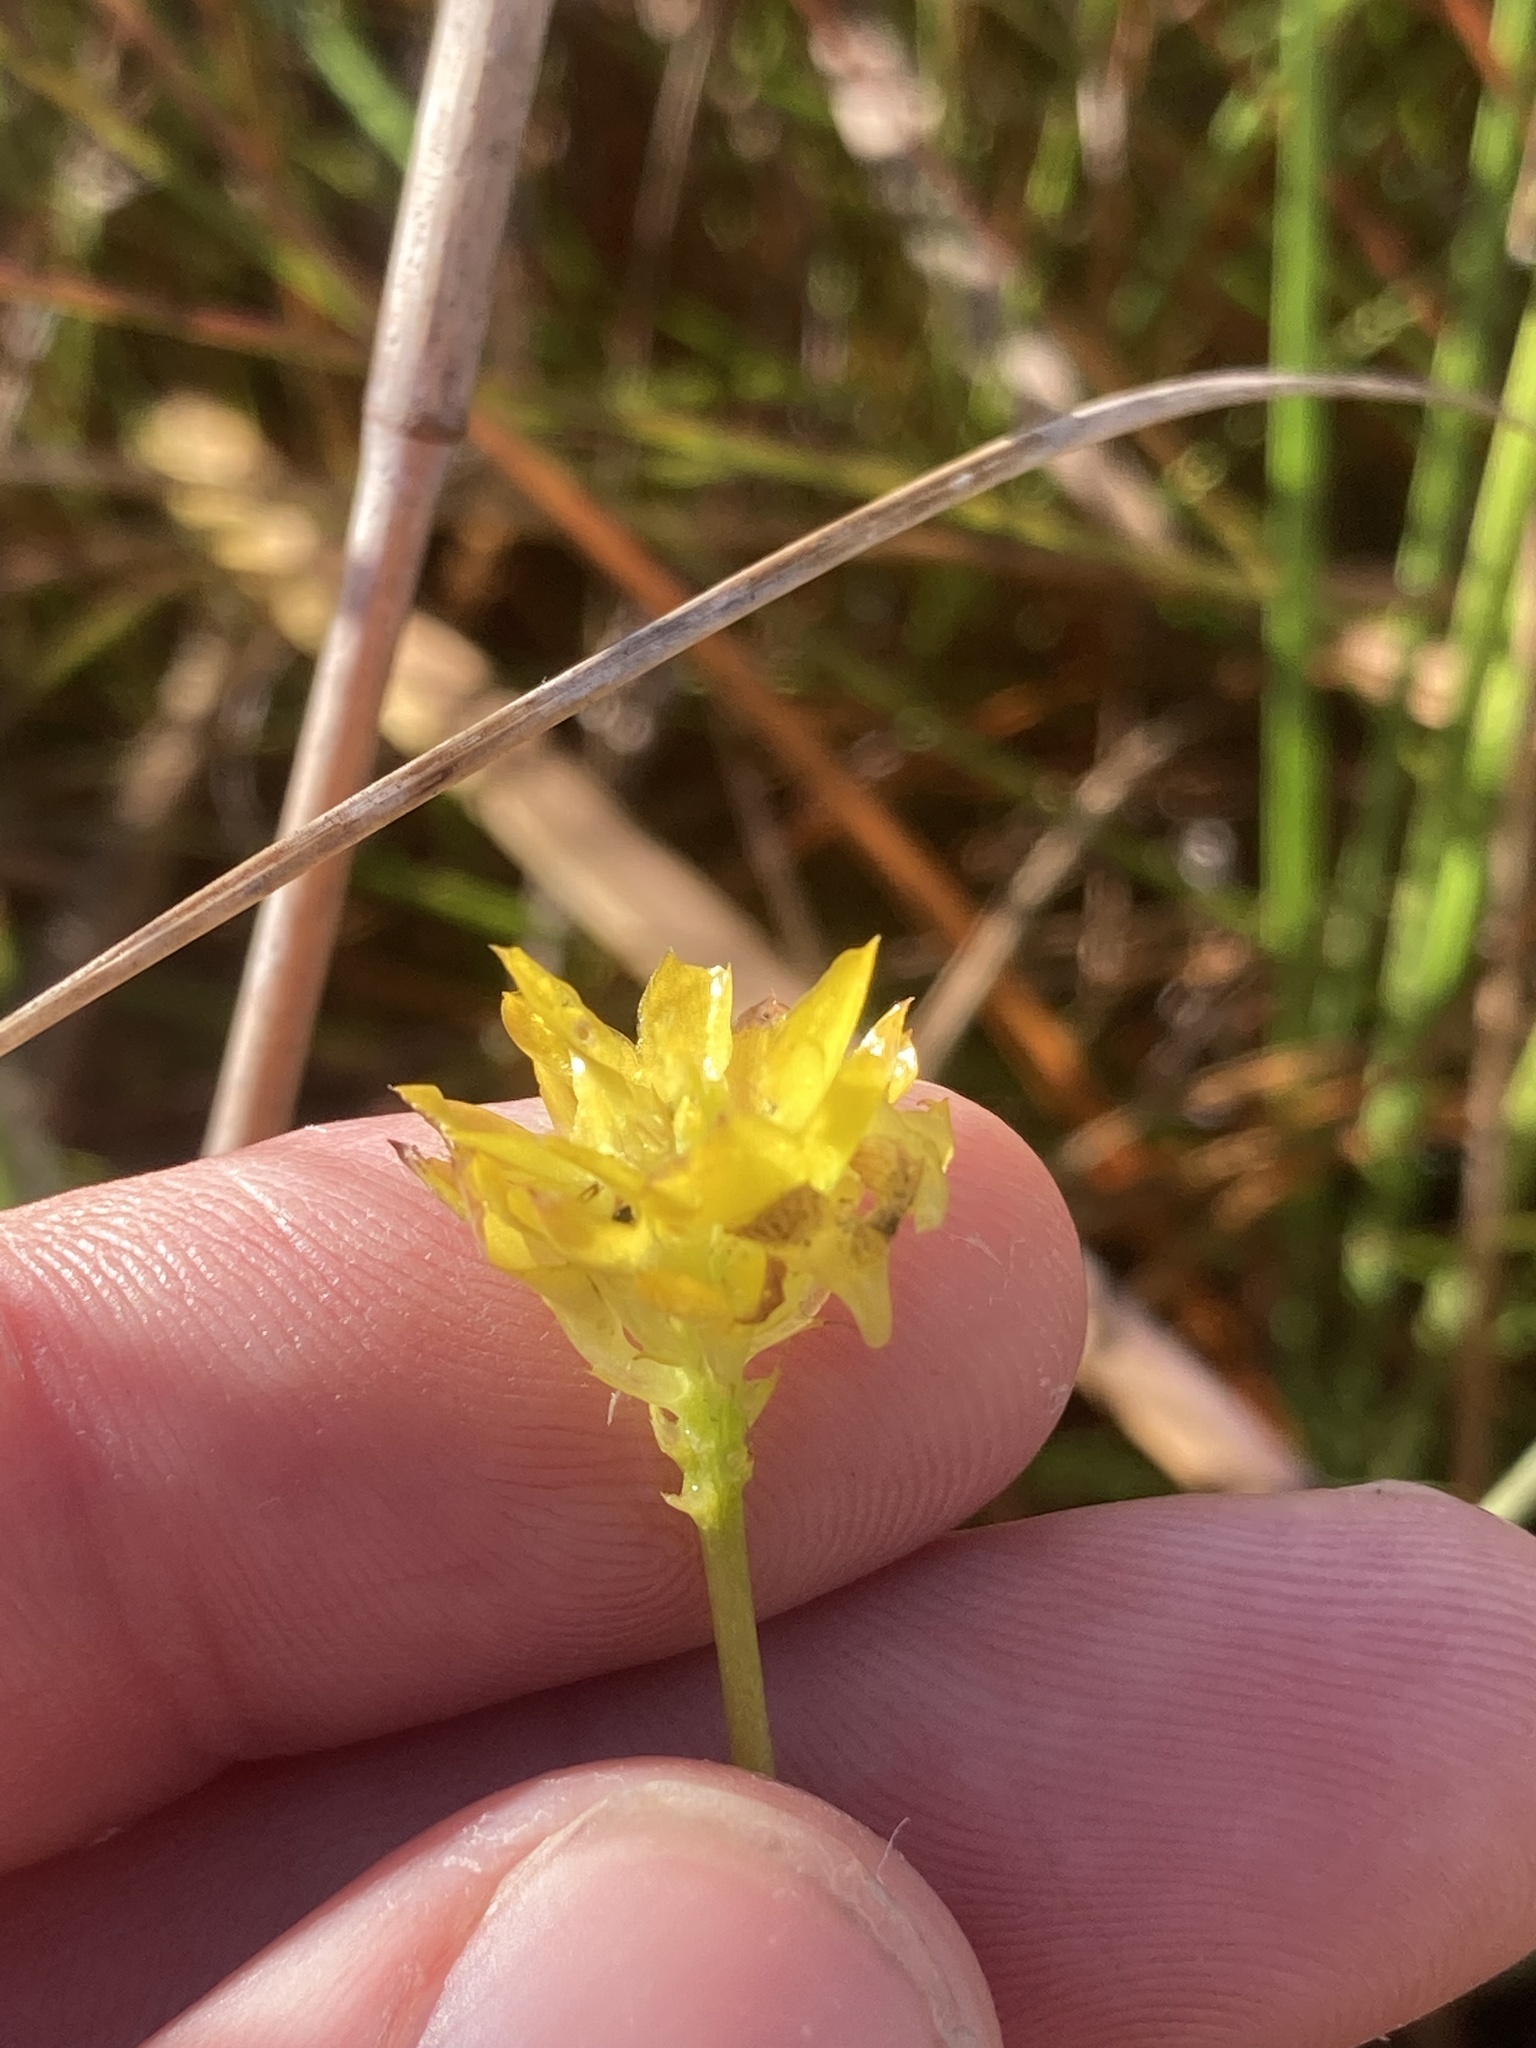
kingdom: Plantae
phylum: Tracheophyta
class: Magnoliopsida
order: Fabales
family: Polygalaceae
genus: Polygala
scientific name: Polygala rugelii
